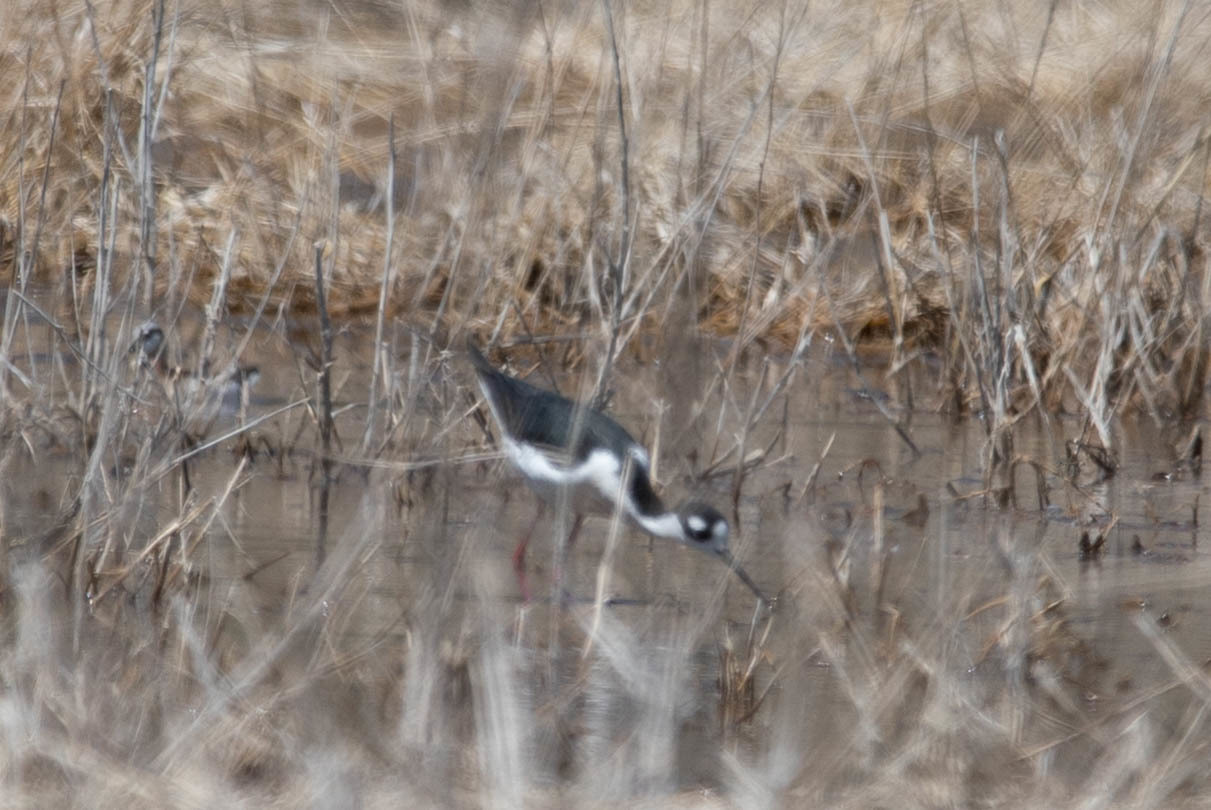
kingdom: Animalia
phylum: Chordata
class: Aves
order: Charadriiformes
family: Recurvirostridae
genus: Himantopus
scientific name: Himantopus mexicanus
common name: Black-necked stilt
